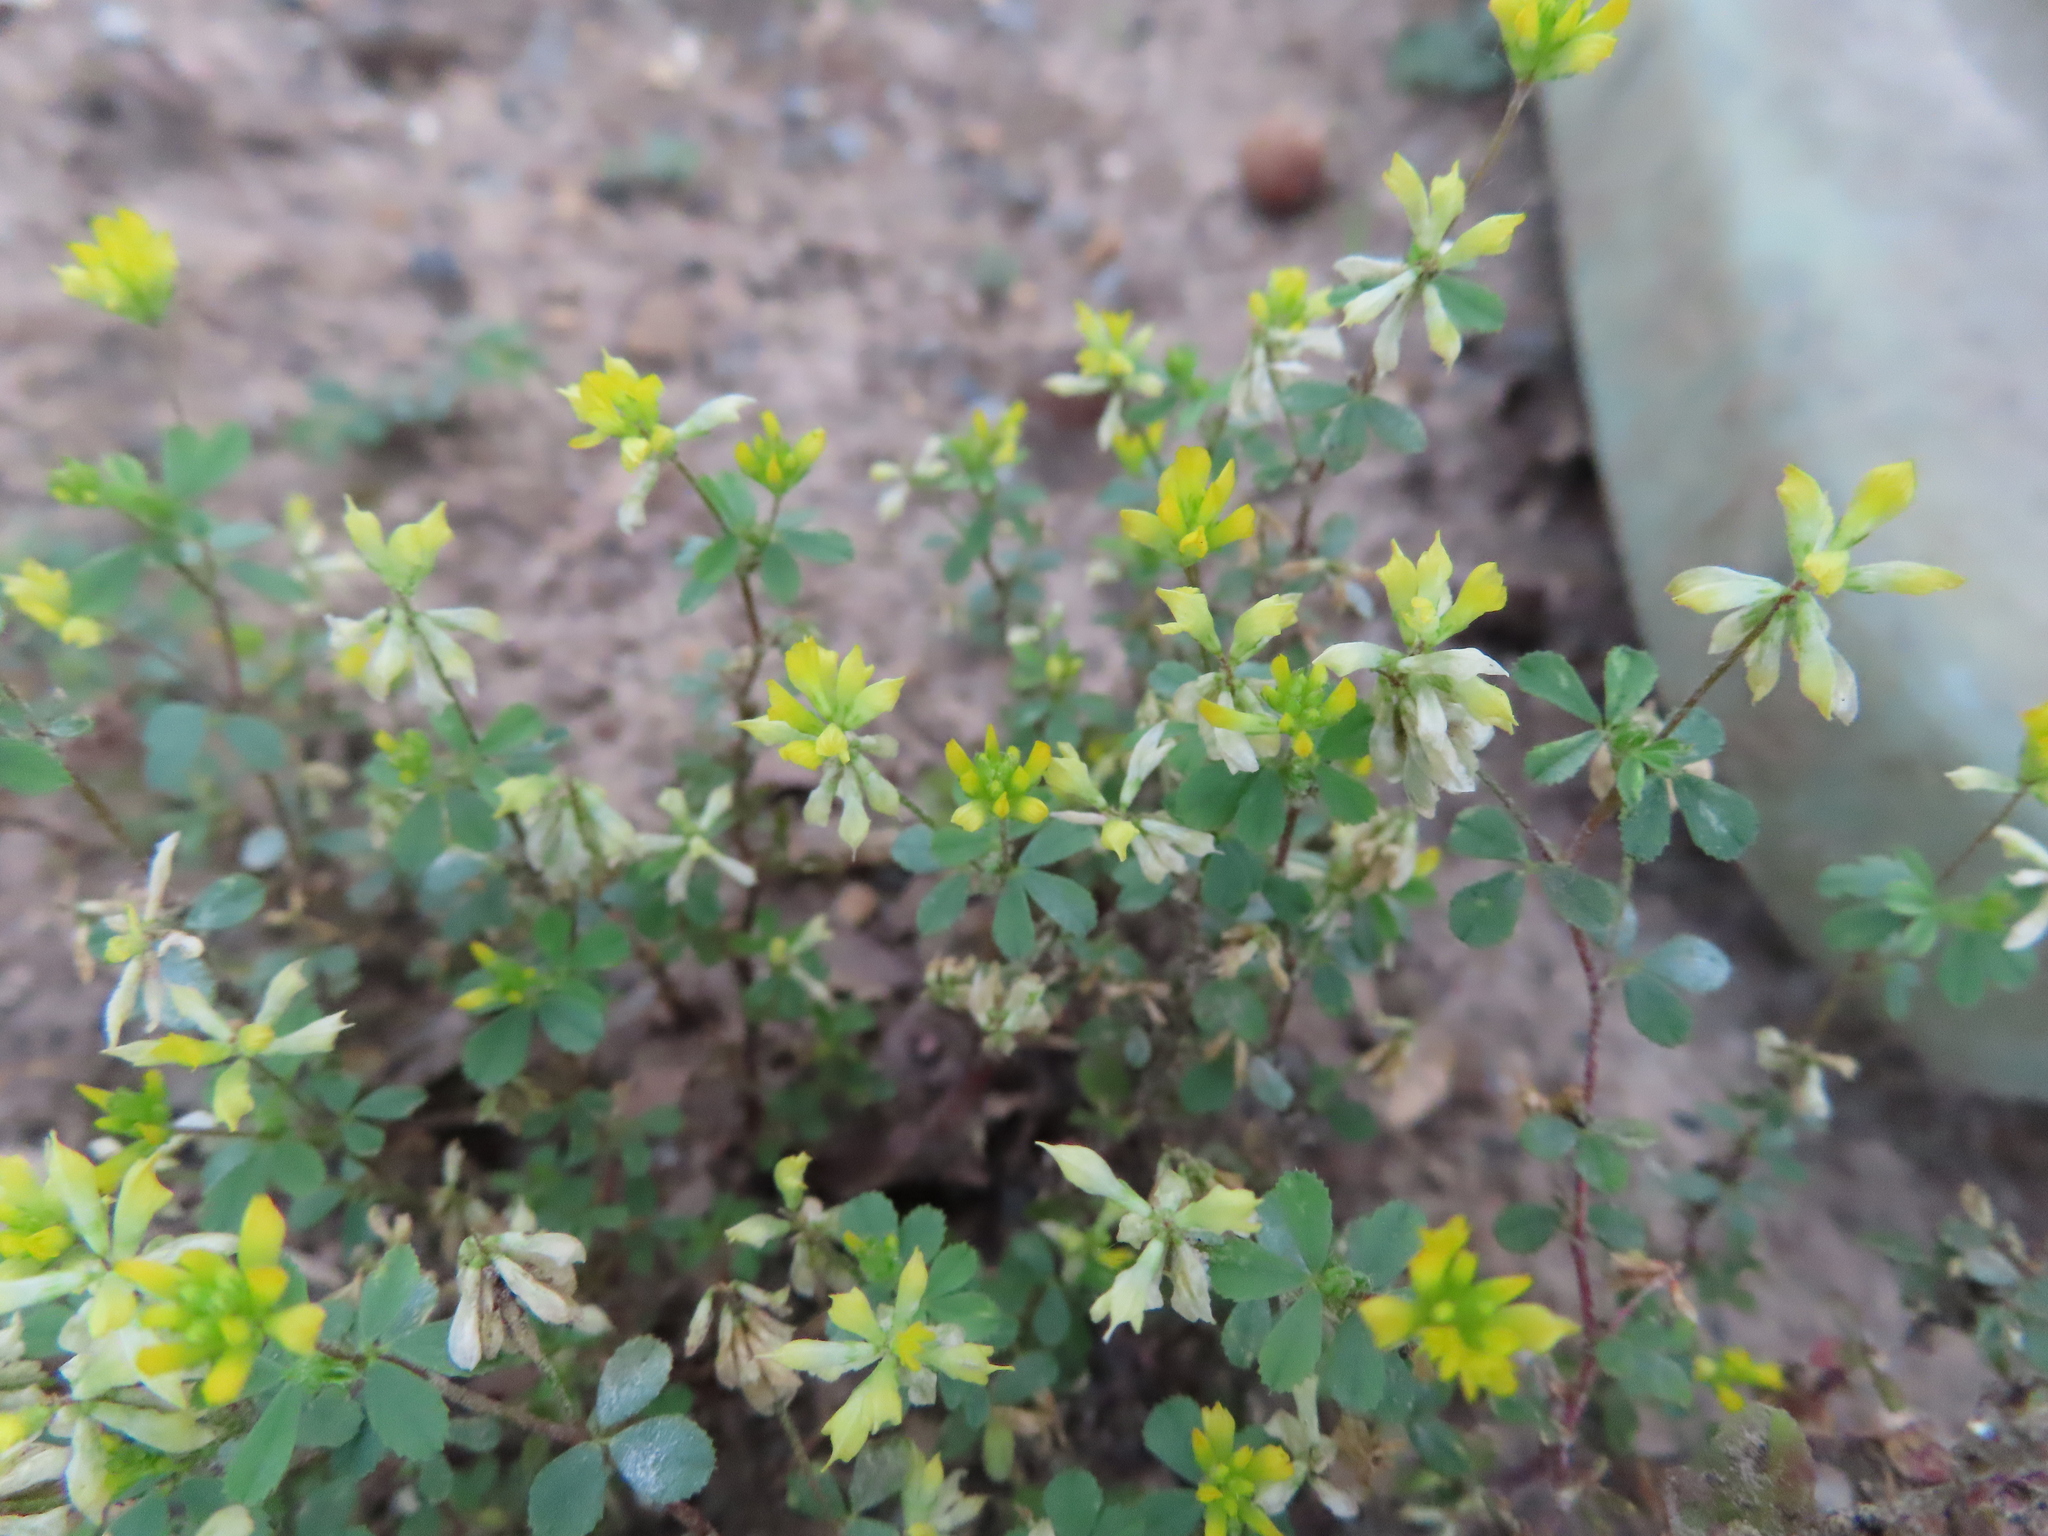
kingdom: Plantae
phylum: Tracheophyta
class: Magnoliopsida
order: Fabales
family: Fabaceae
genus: Trifolium
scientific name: Trifolium dubium
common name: Suckling clover
